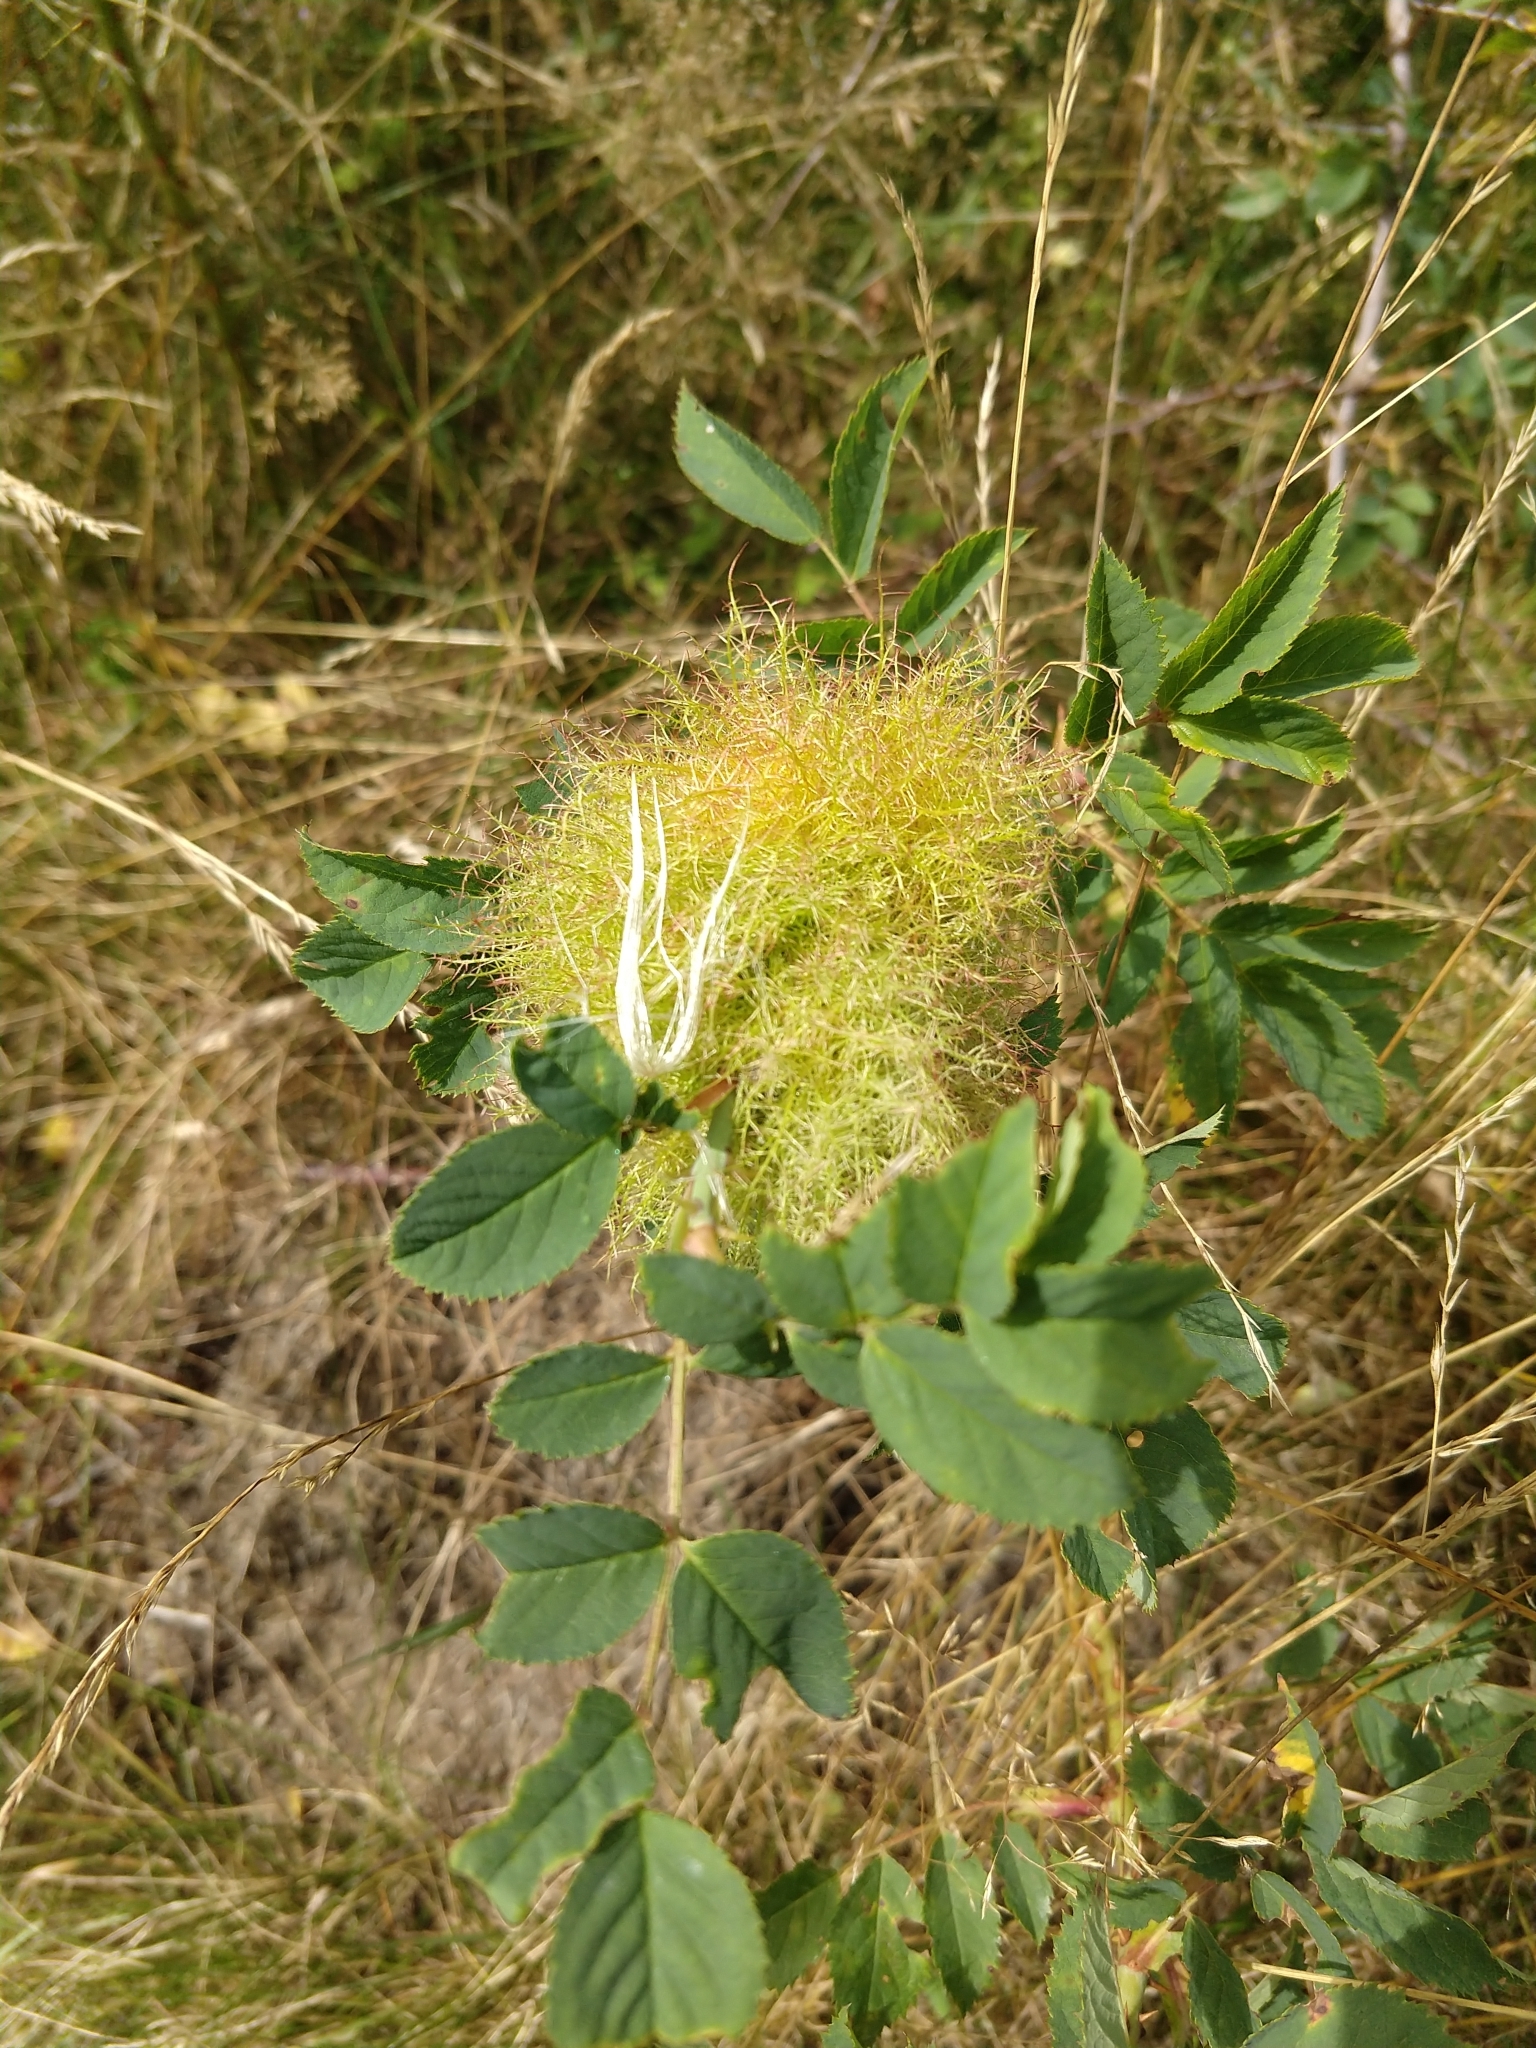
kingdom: Animalia
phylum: Arthropoda
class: Insecta
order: Hymenoptera
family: Cynipidae
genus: Diplolepis
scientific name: Diplolepis rosae
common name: Bedeguar gall
